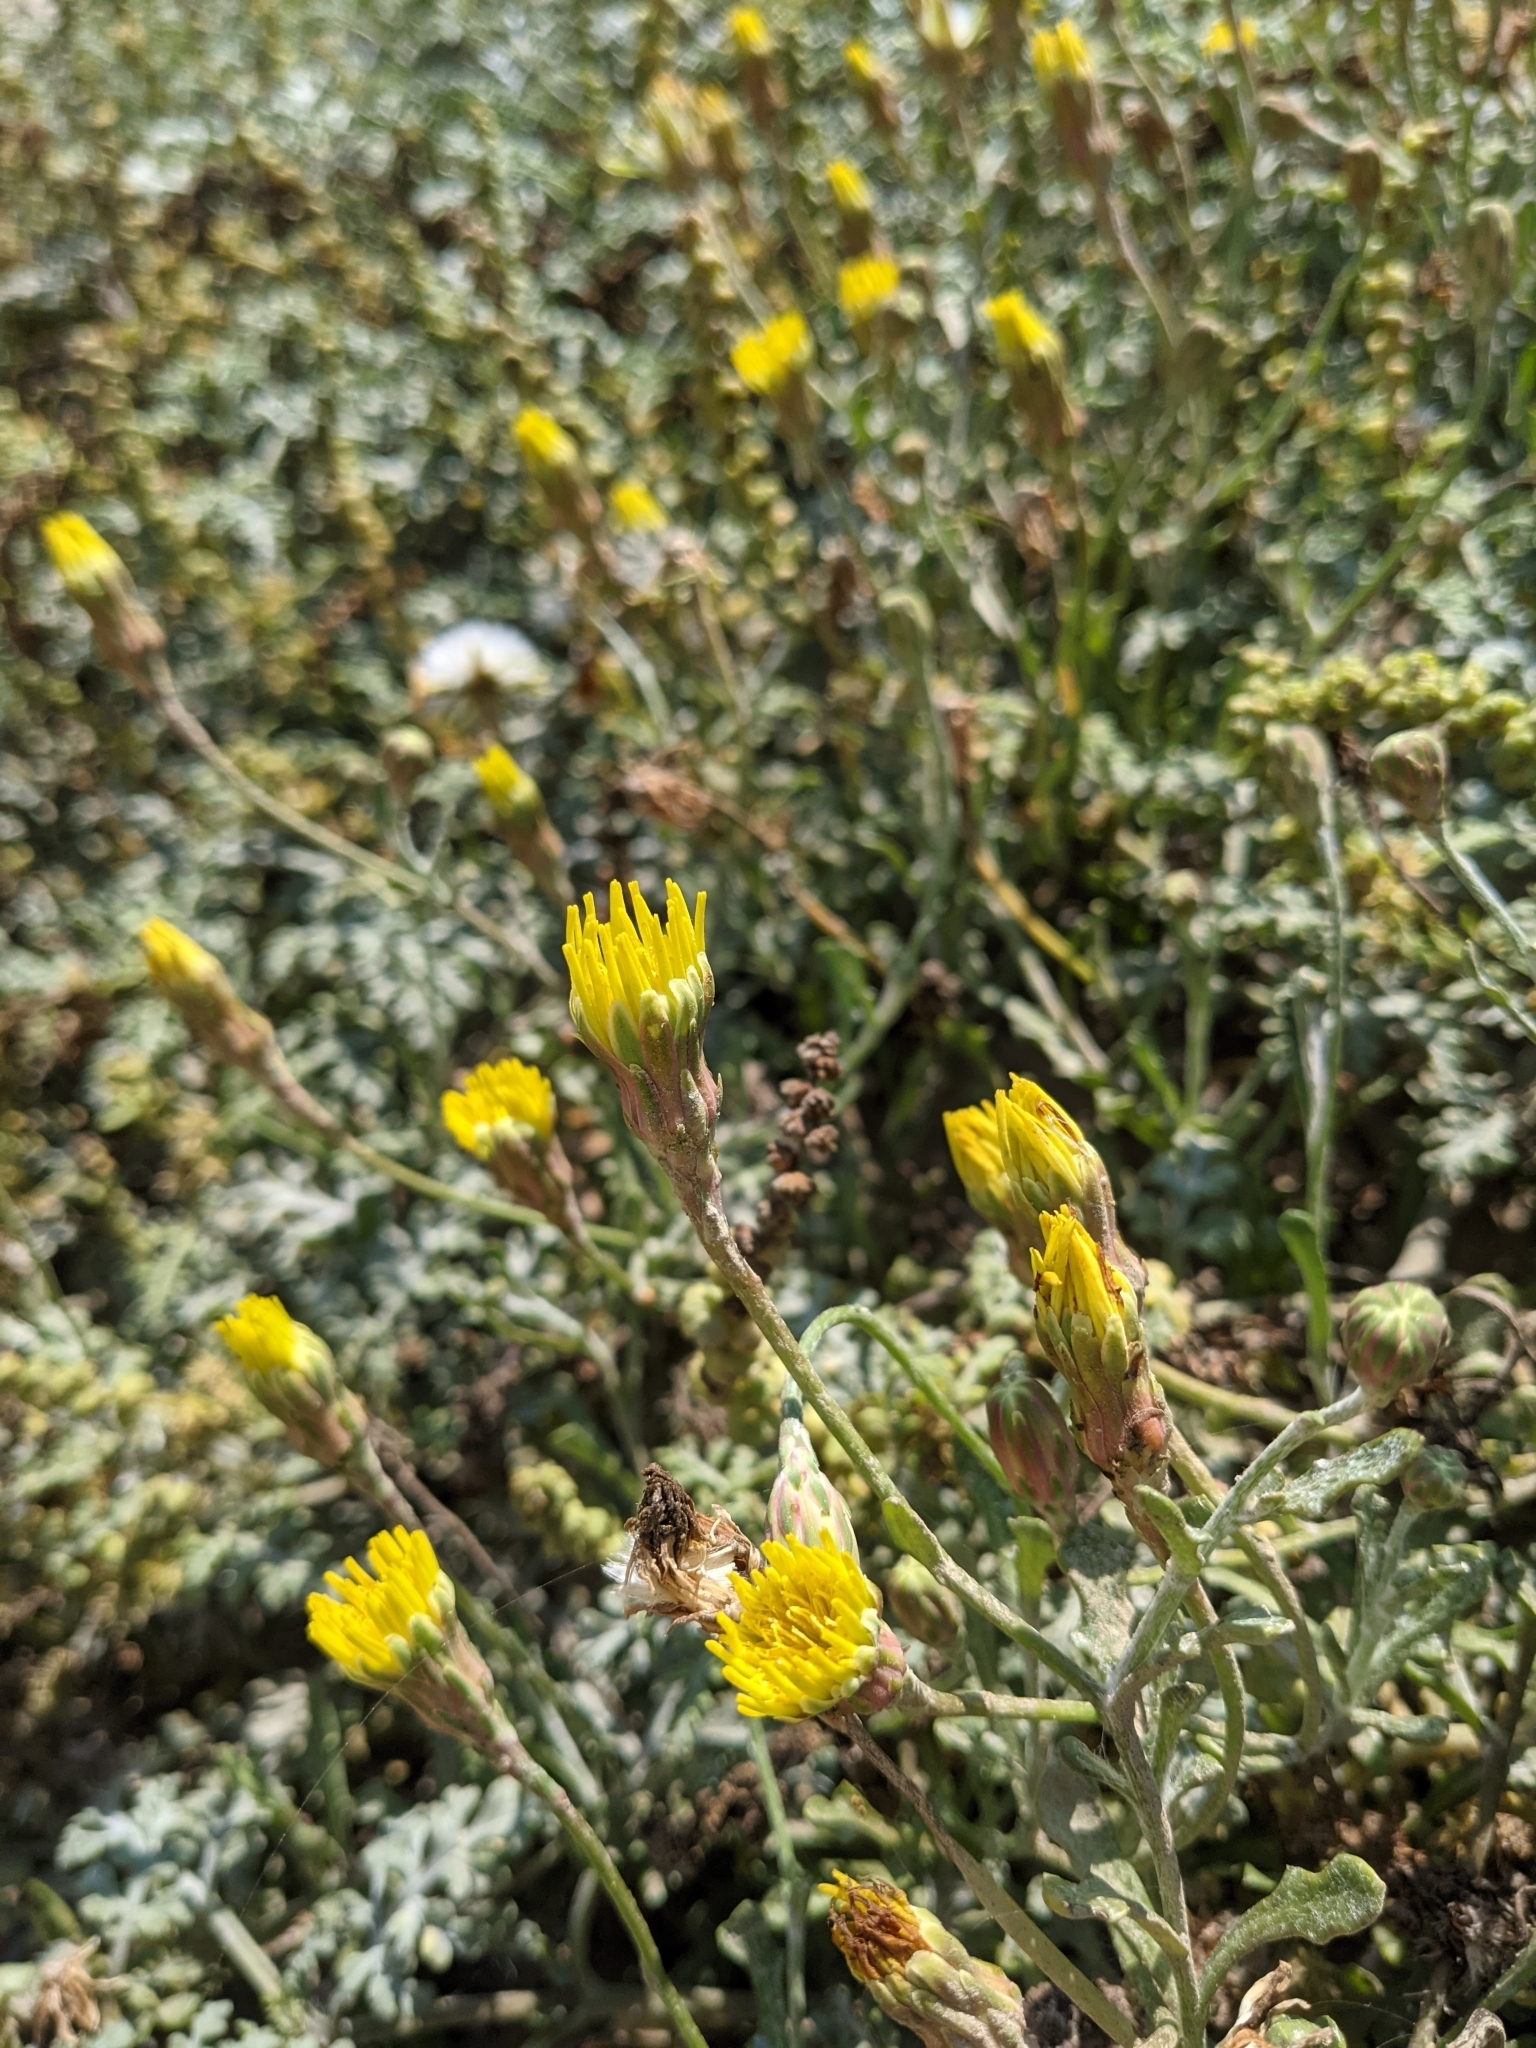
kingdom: Plantae
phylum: Tracheophyta
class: Magnoliopsida
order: Asterales
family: Asteraceae
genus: Malacothrix
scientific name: Malacothrix incana
